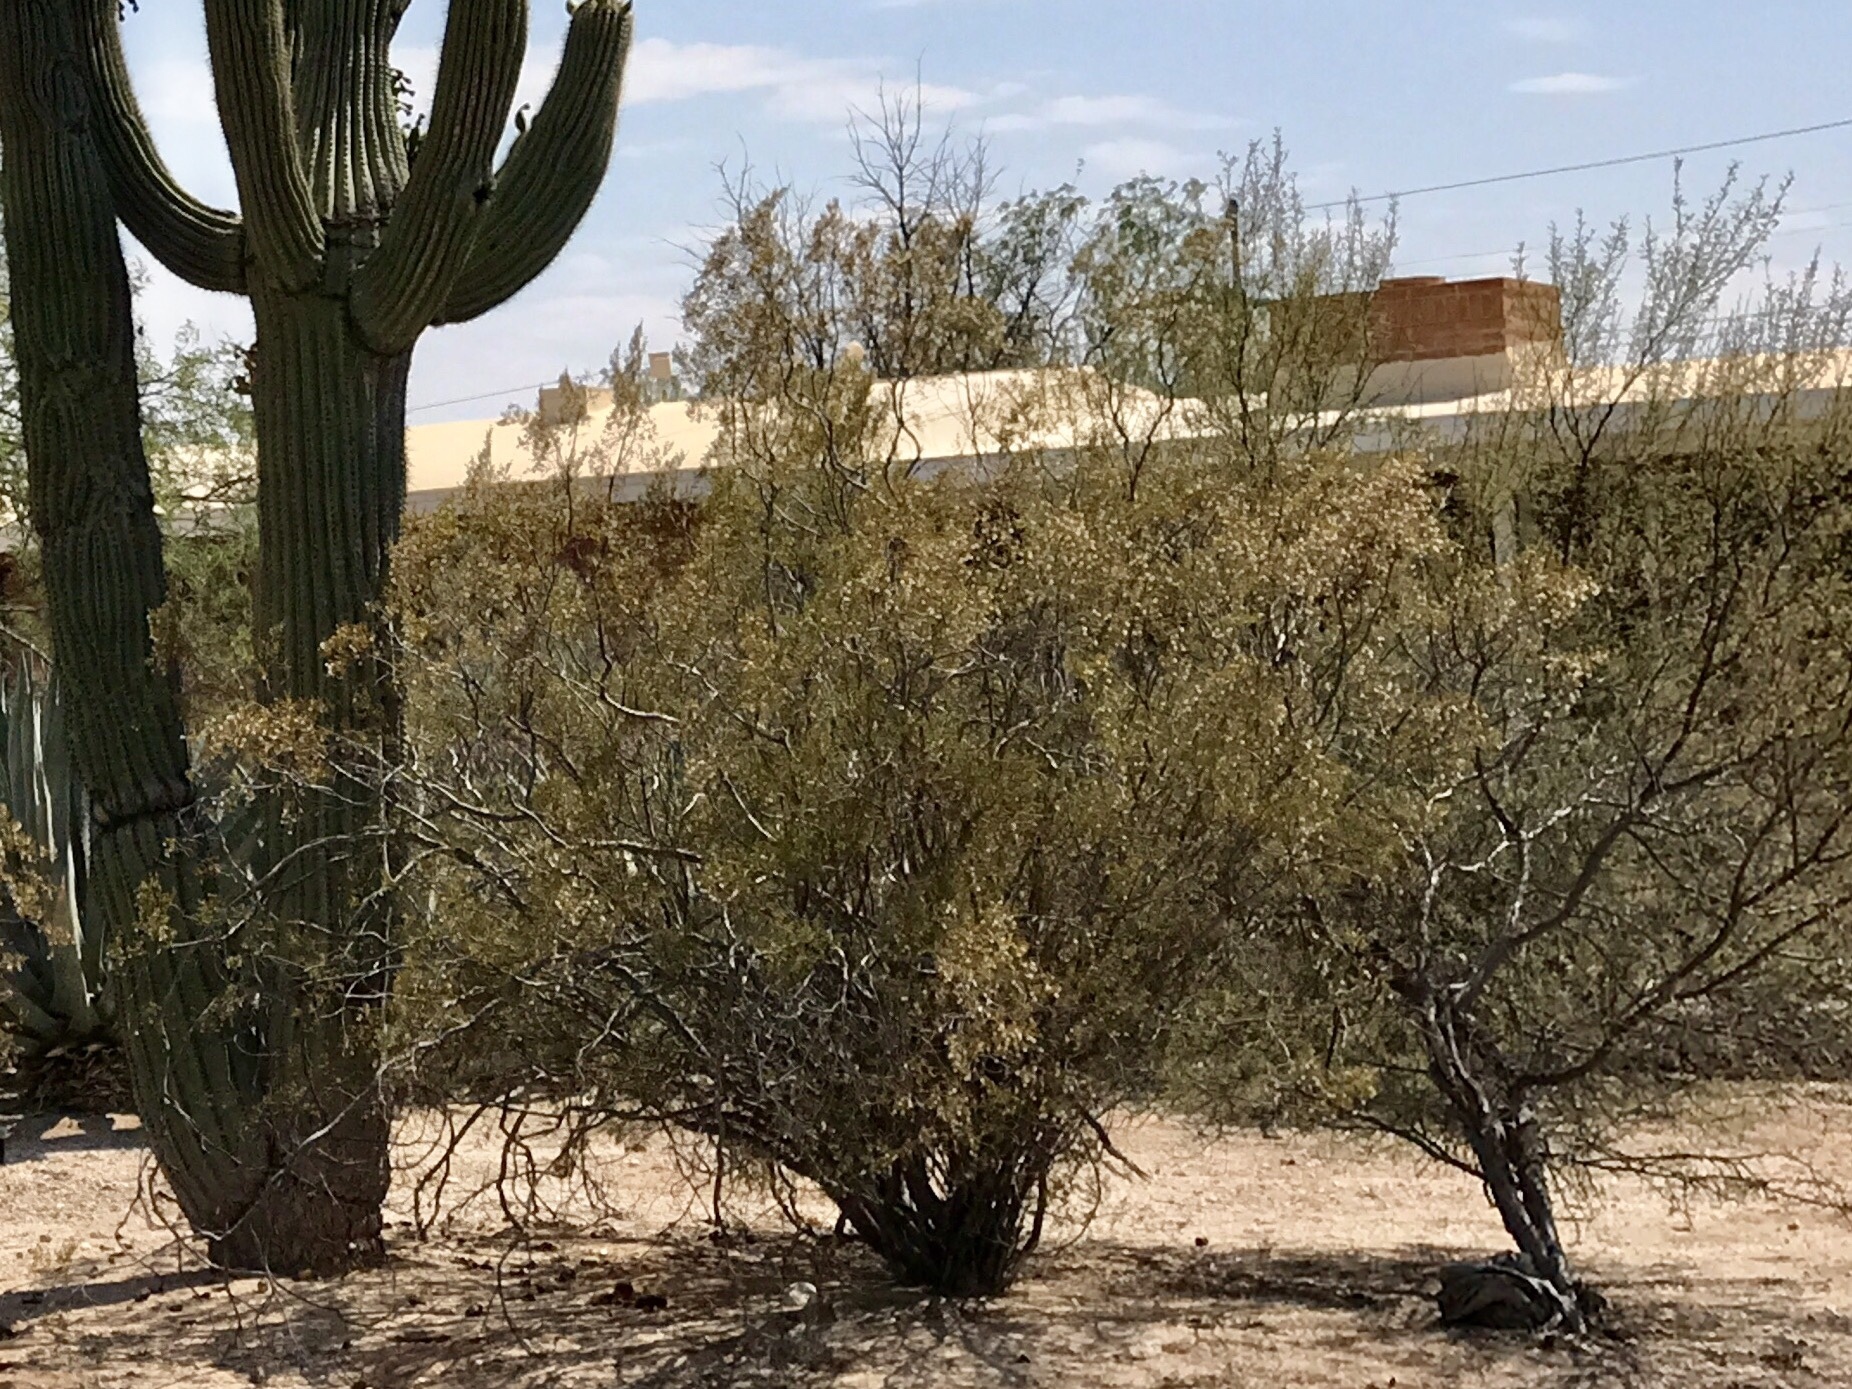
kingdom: Plantae
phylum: Tracheophyta
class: Magnoliopsida
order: Zygophyllales
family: Zygophyllaceae
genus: Larrea
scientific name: Larrea tridentata
